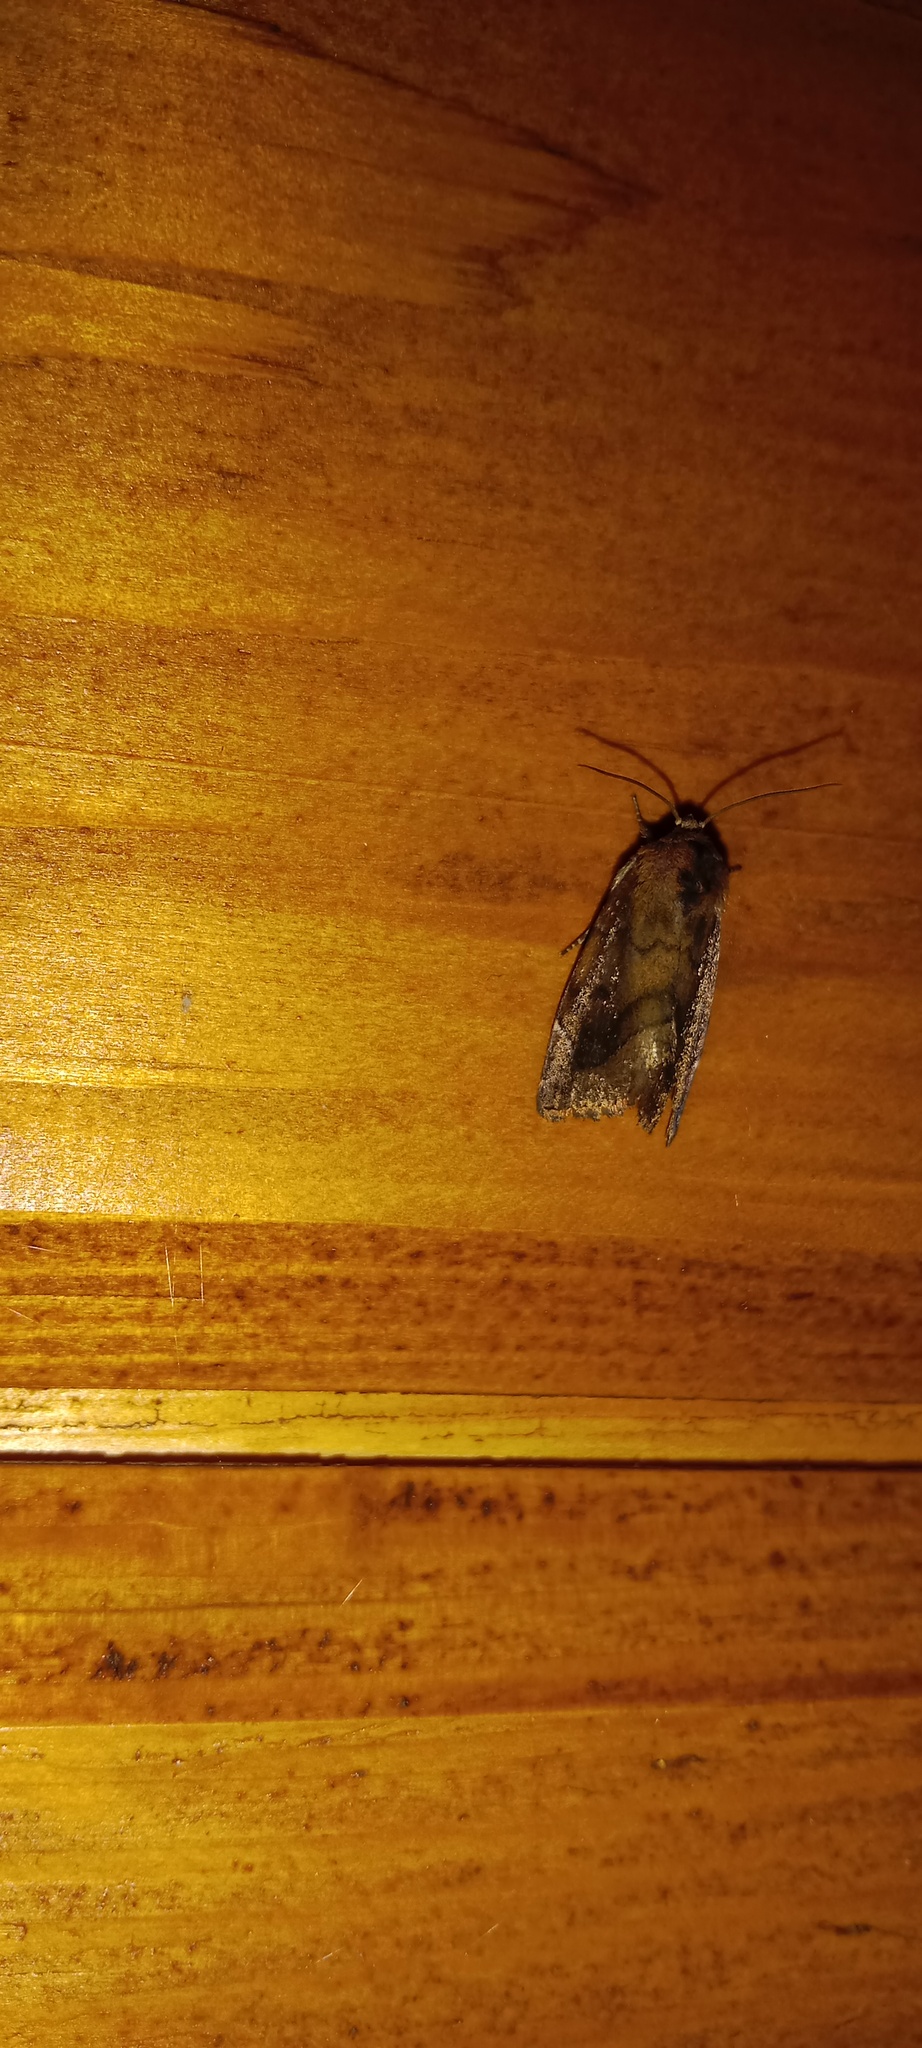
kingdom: Animalia
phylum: Arthropoda
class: Insecta
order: Lepidoptera
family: Noctuidae
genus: Cosmia
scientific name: Cosmia pyralina
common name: Lunar-spotted pinion
